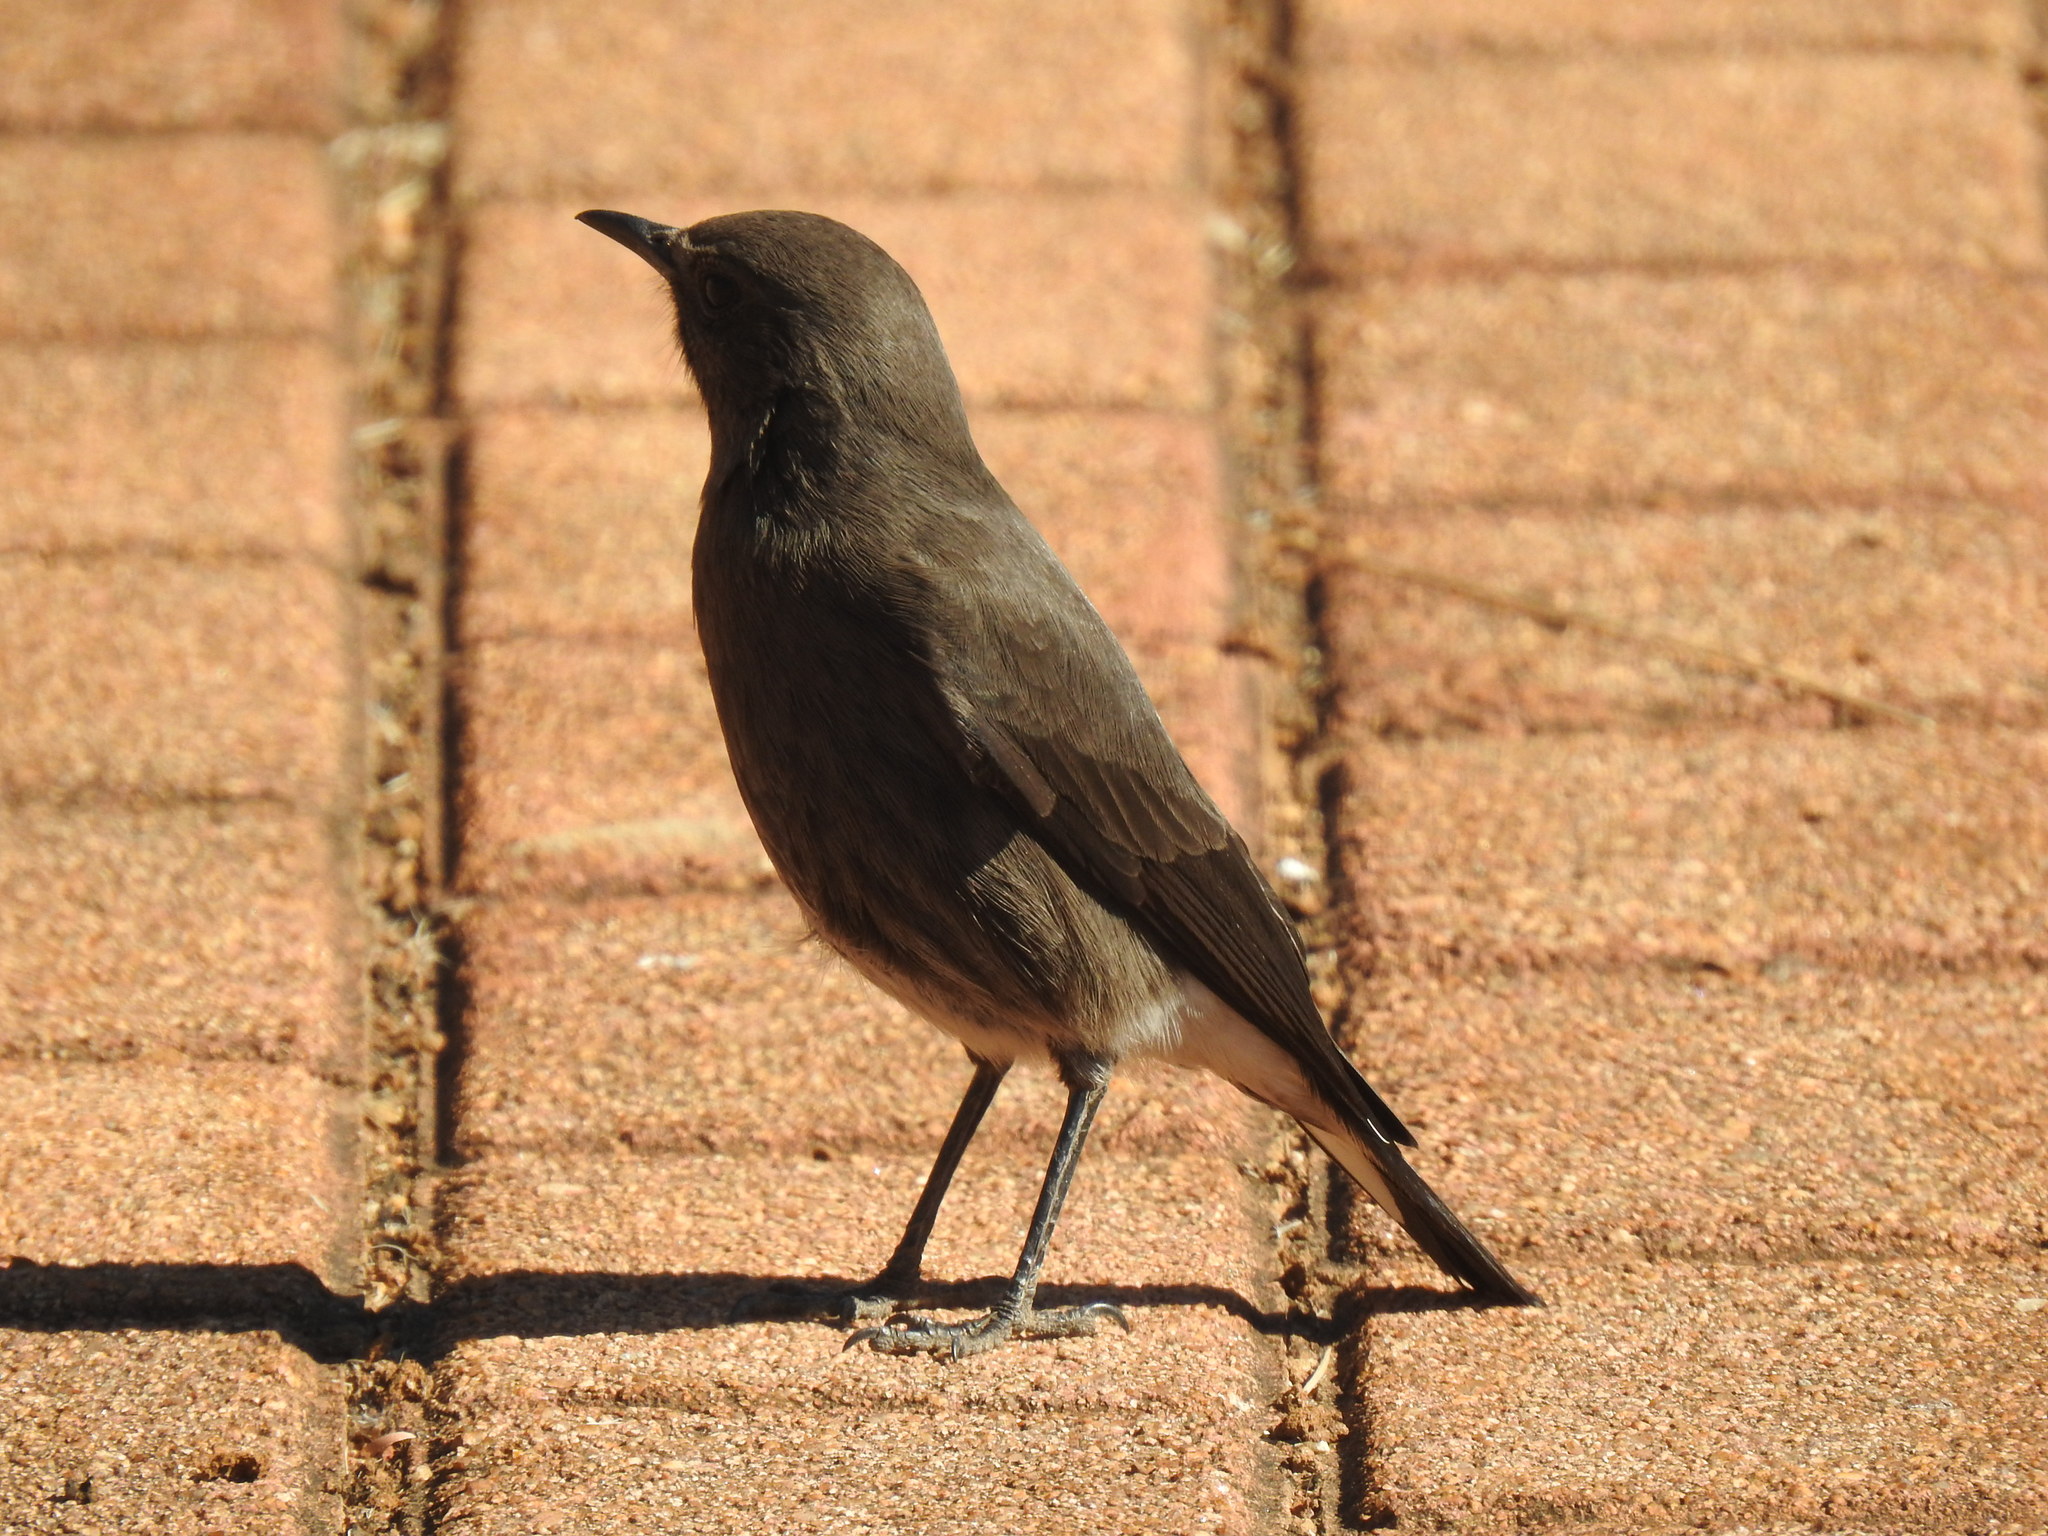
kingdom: Animalia
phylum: Chordata
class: Aves
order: Passeriformes
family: Muscicapidae
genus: Oenanthe
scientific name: Oenanthe monticola
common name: Mountain wheatear
